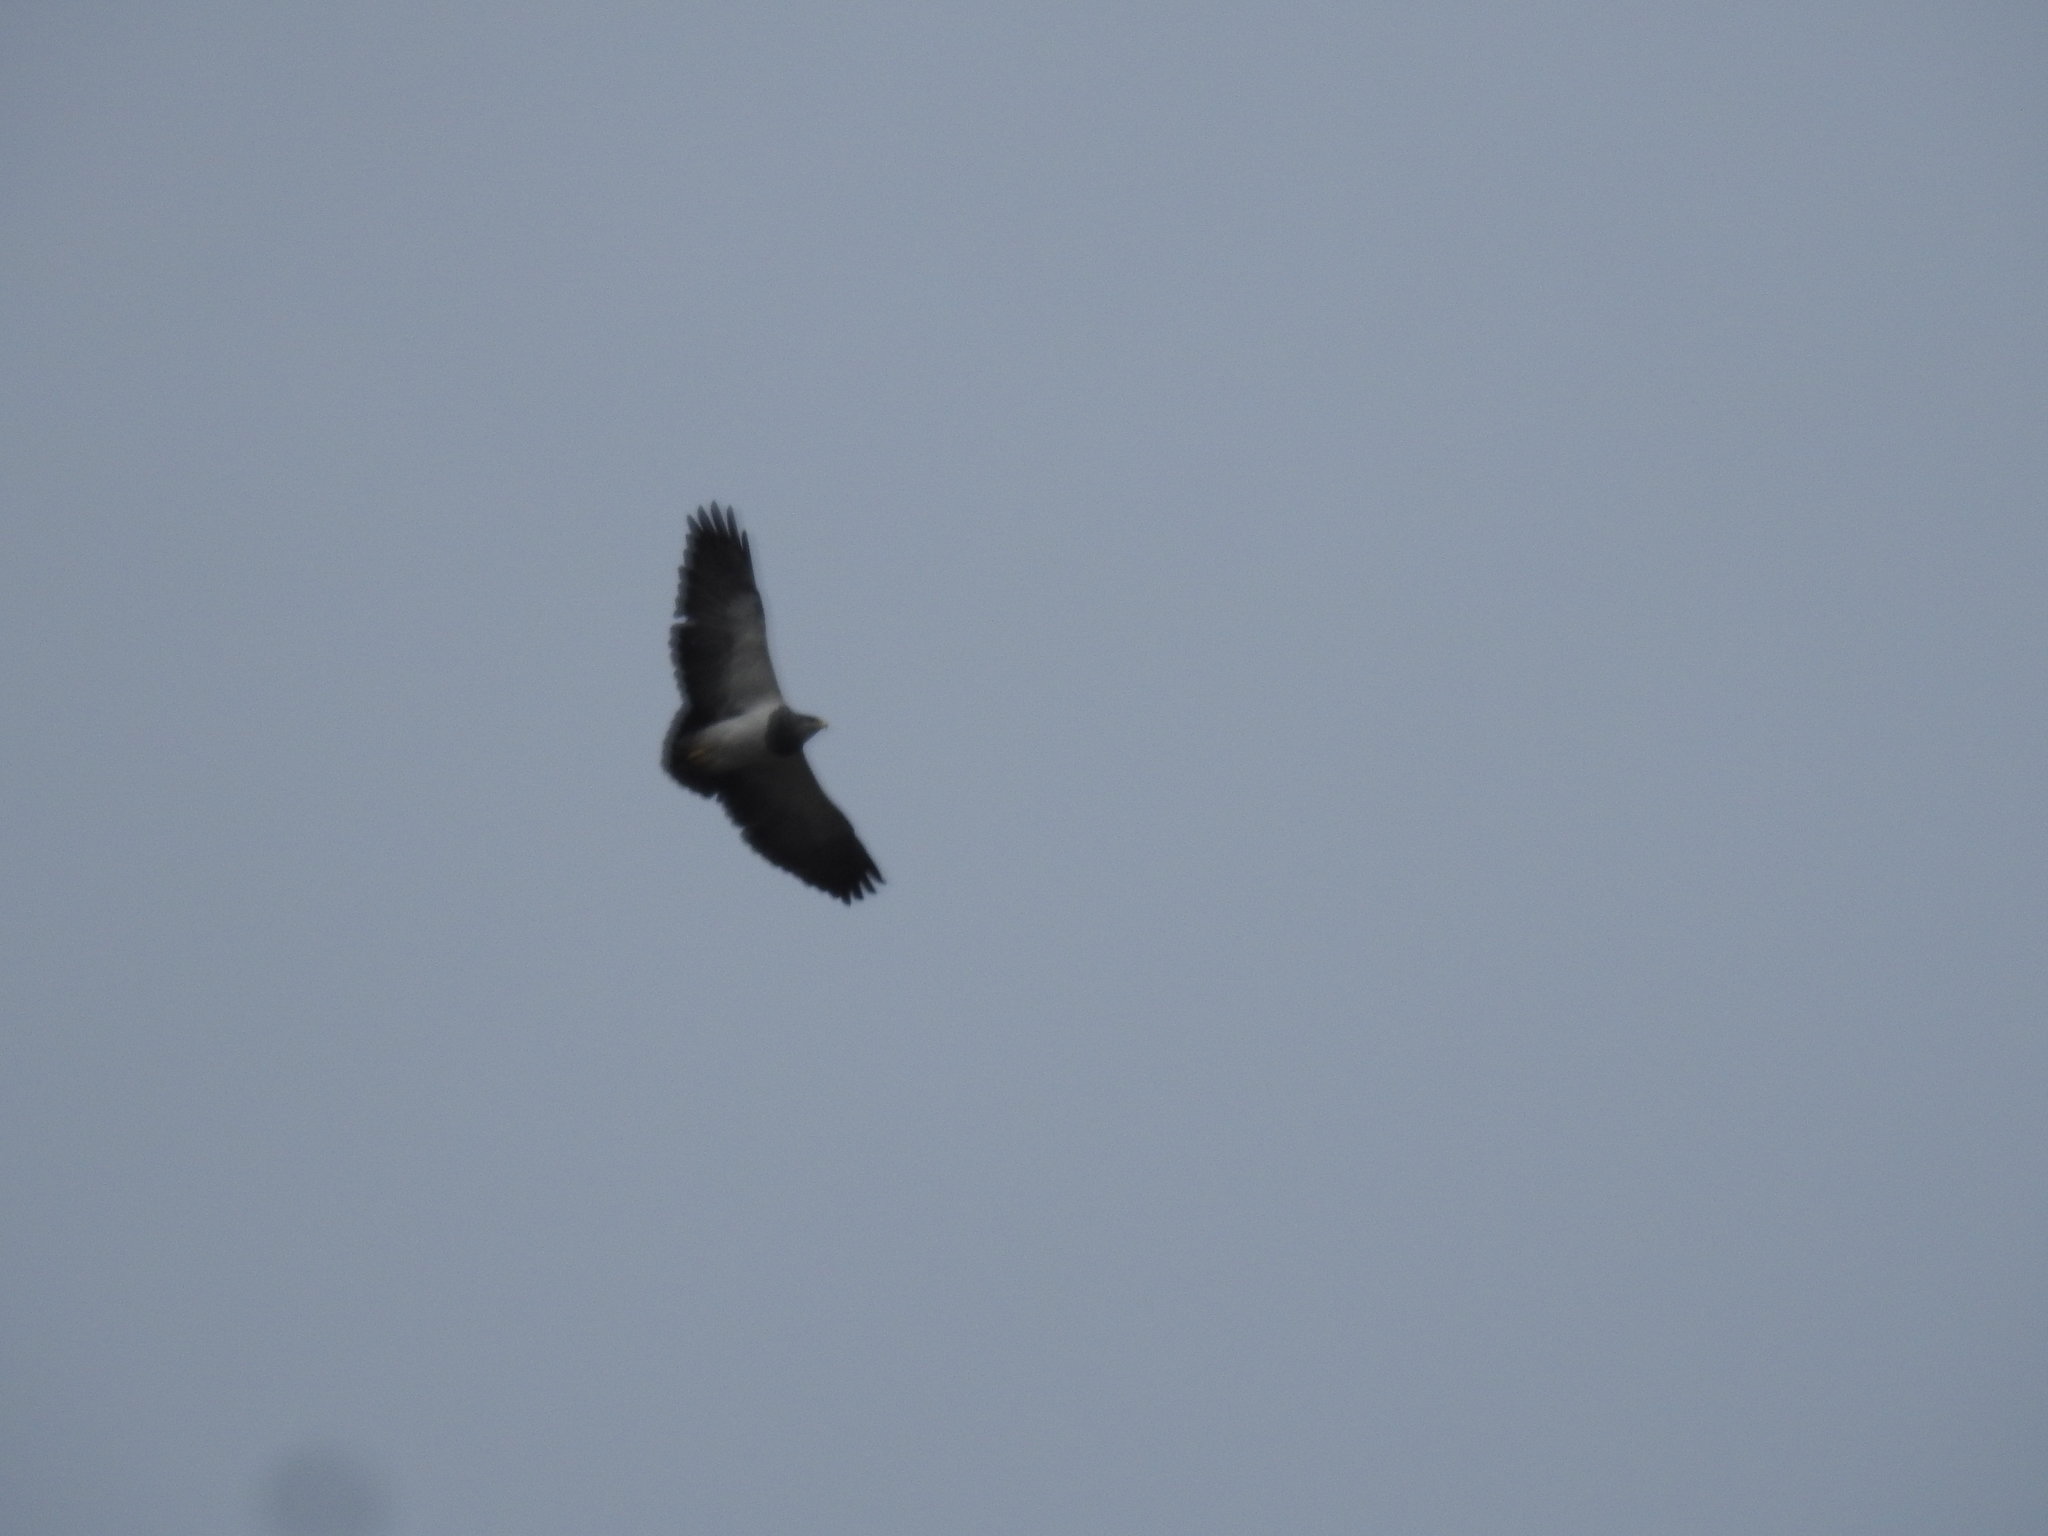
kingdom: Animalia
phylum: Chordata
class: Aves
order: Accipitriformes
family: Accipitridae
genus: Geranoaetus
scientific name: Geranoaetus melanoleucus
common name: Black-chested buzzard-eagle
